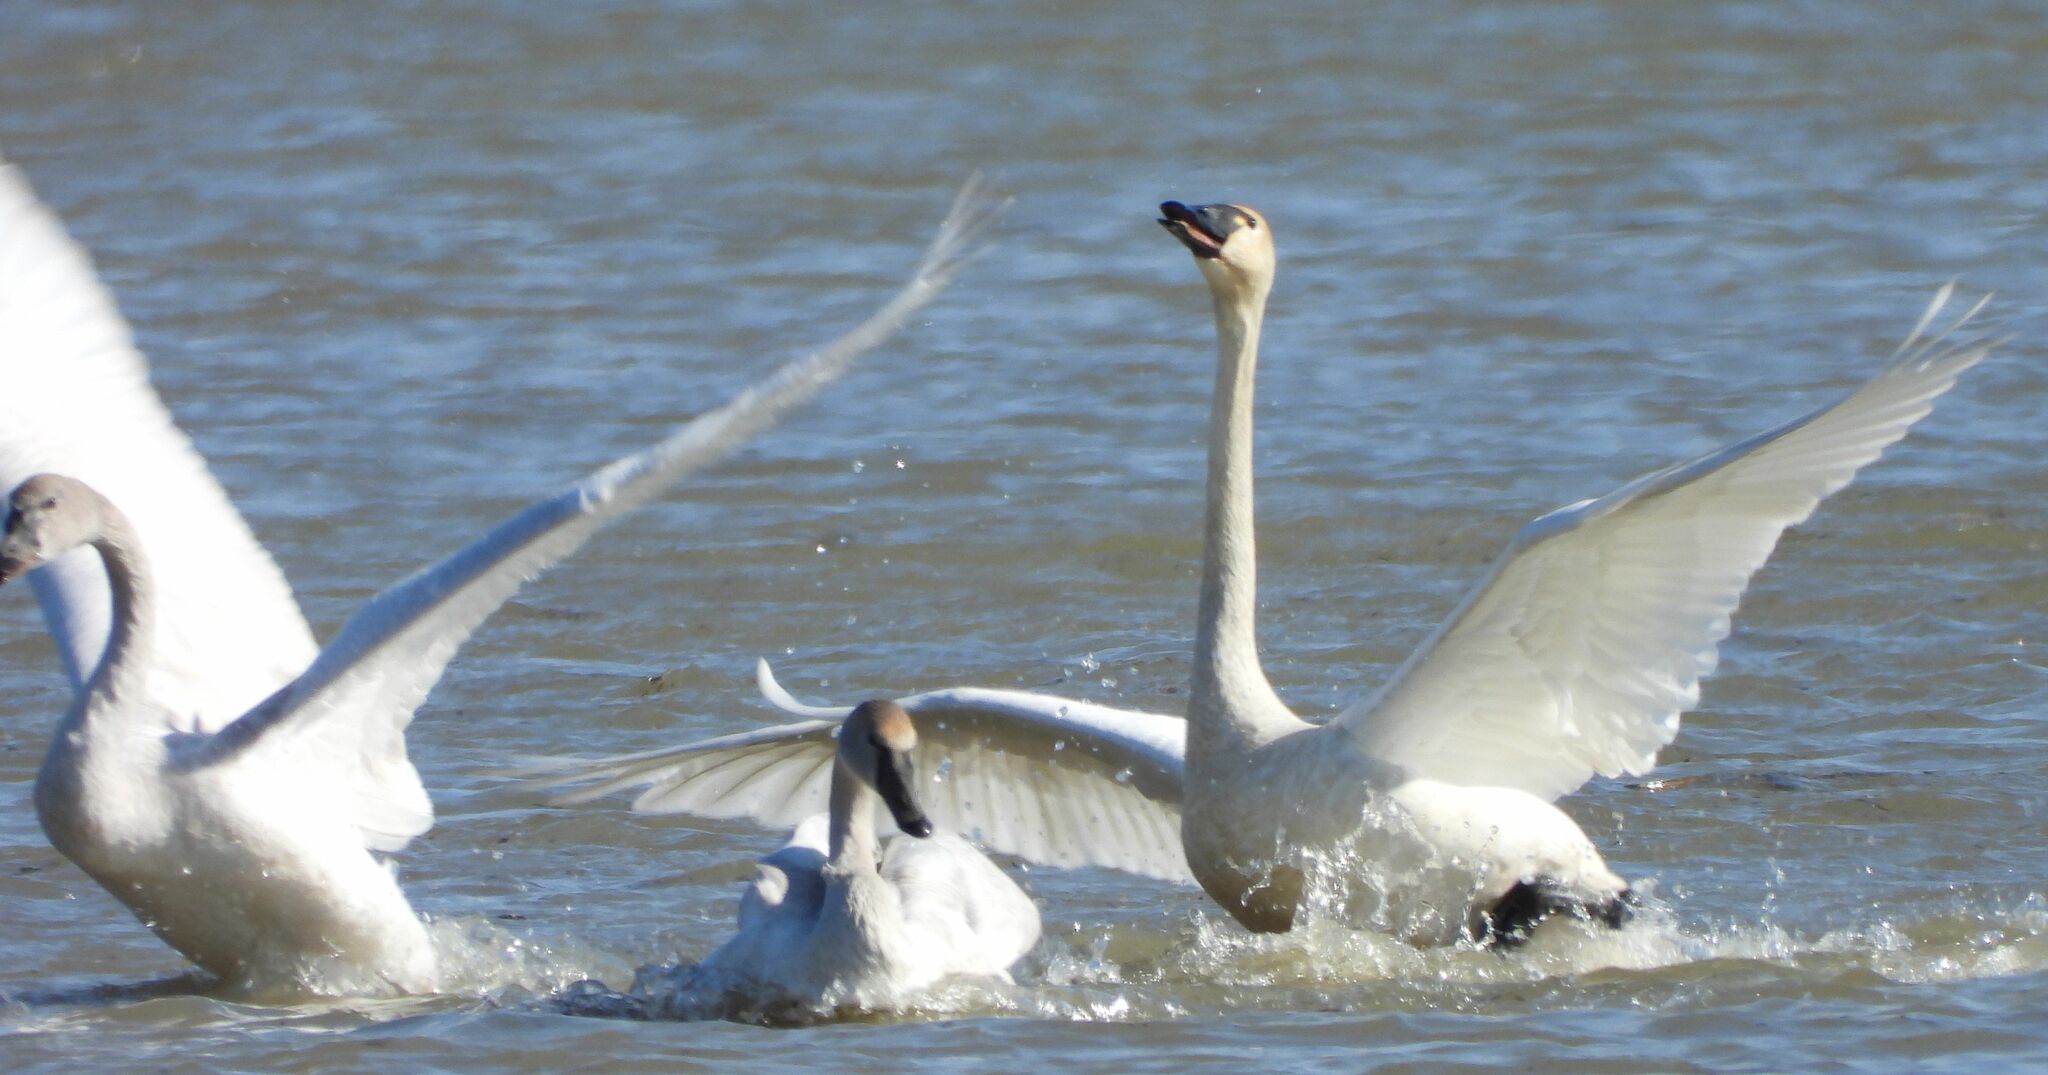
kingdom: Animalia
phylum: Chordata
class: Aves
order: Anseriformes
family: Anatidae
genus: Cygnus
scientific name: Cygnus columbianus
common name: Tundra swan
